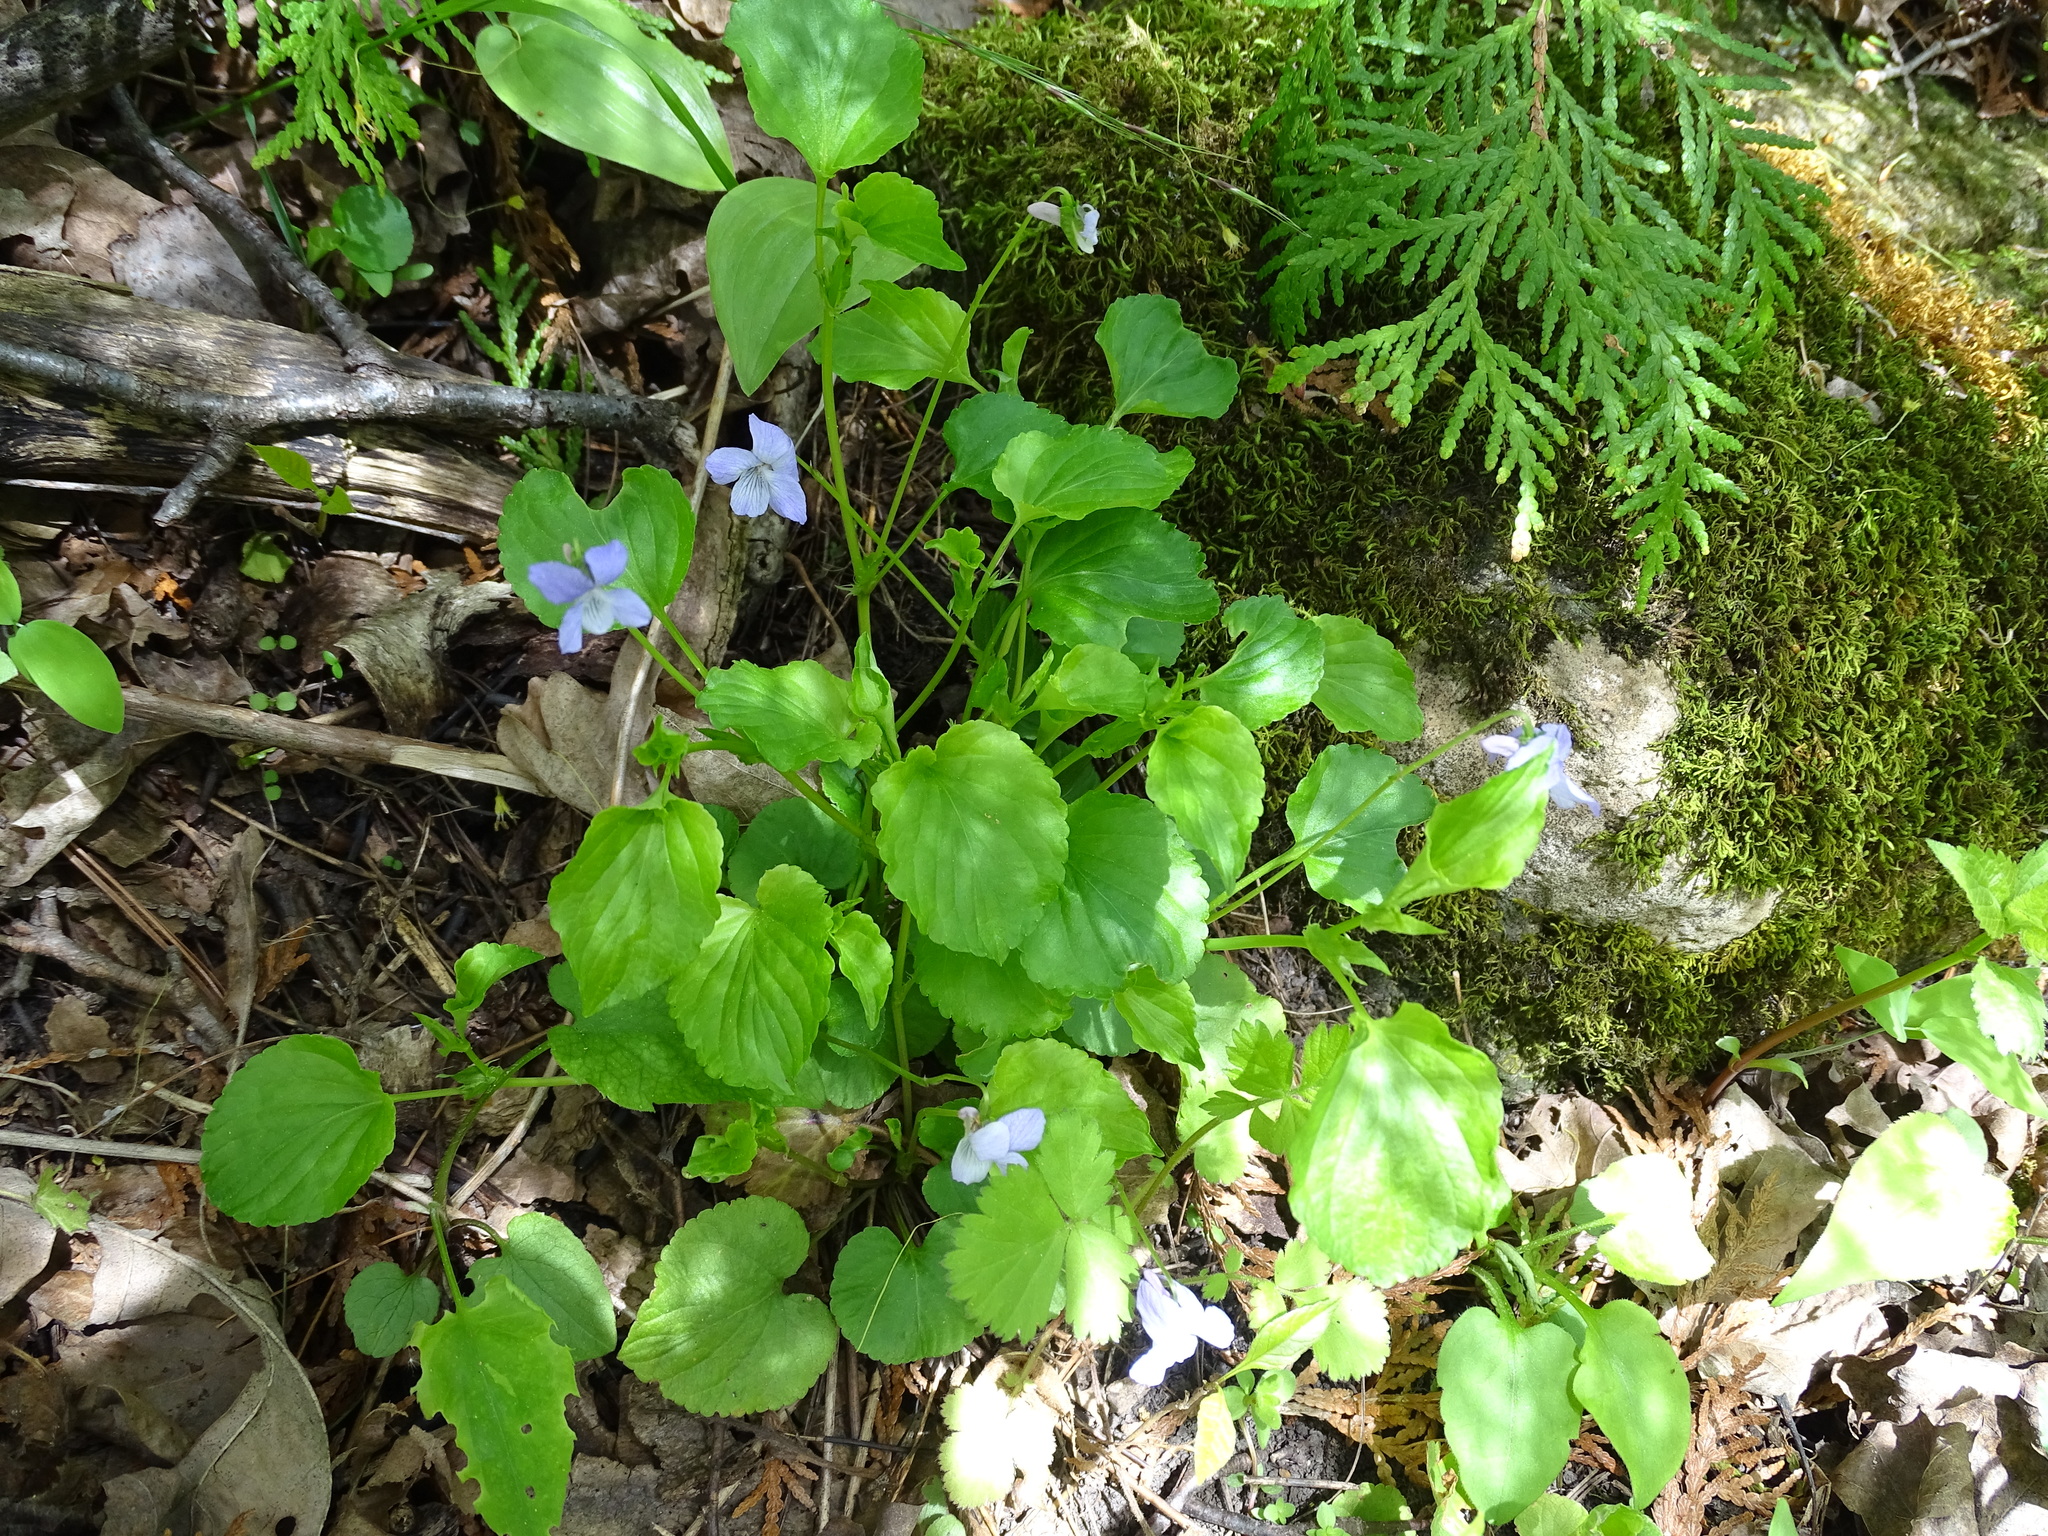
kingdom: Plantae
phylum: Tracheophyta
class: Magnoliopsida
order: Malpighiales
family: Violaceae
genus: Viola
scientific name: Viola labradorica
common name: Labrador violet
